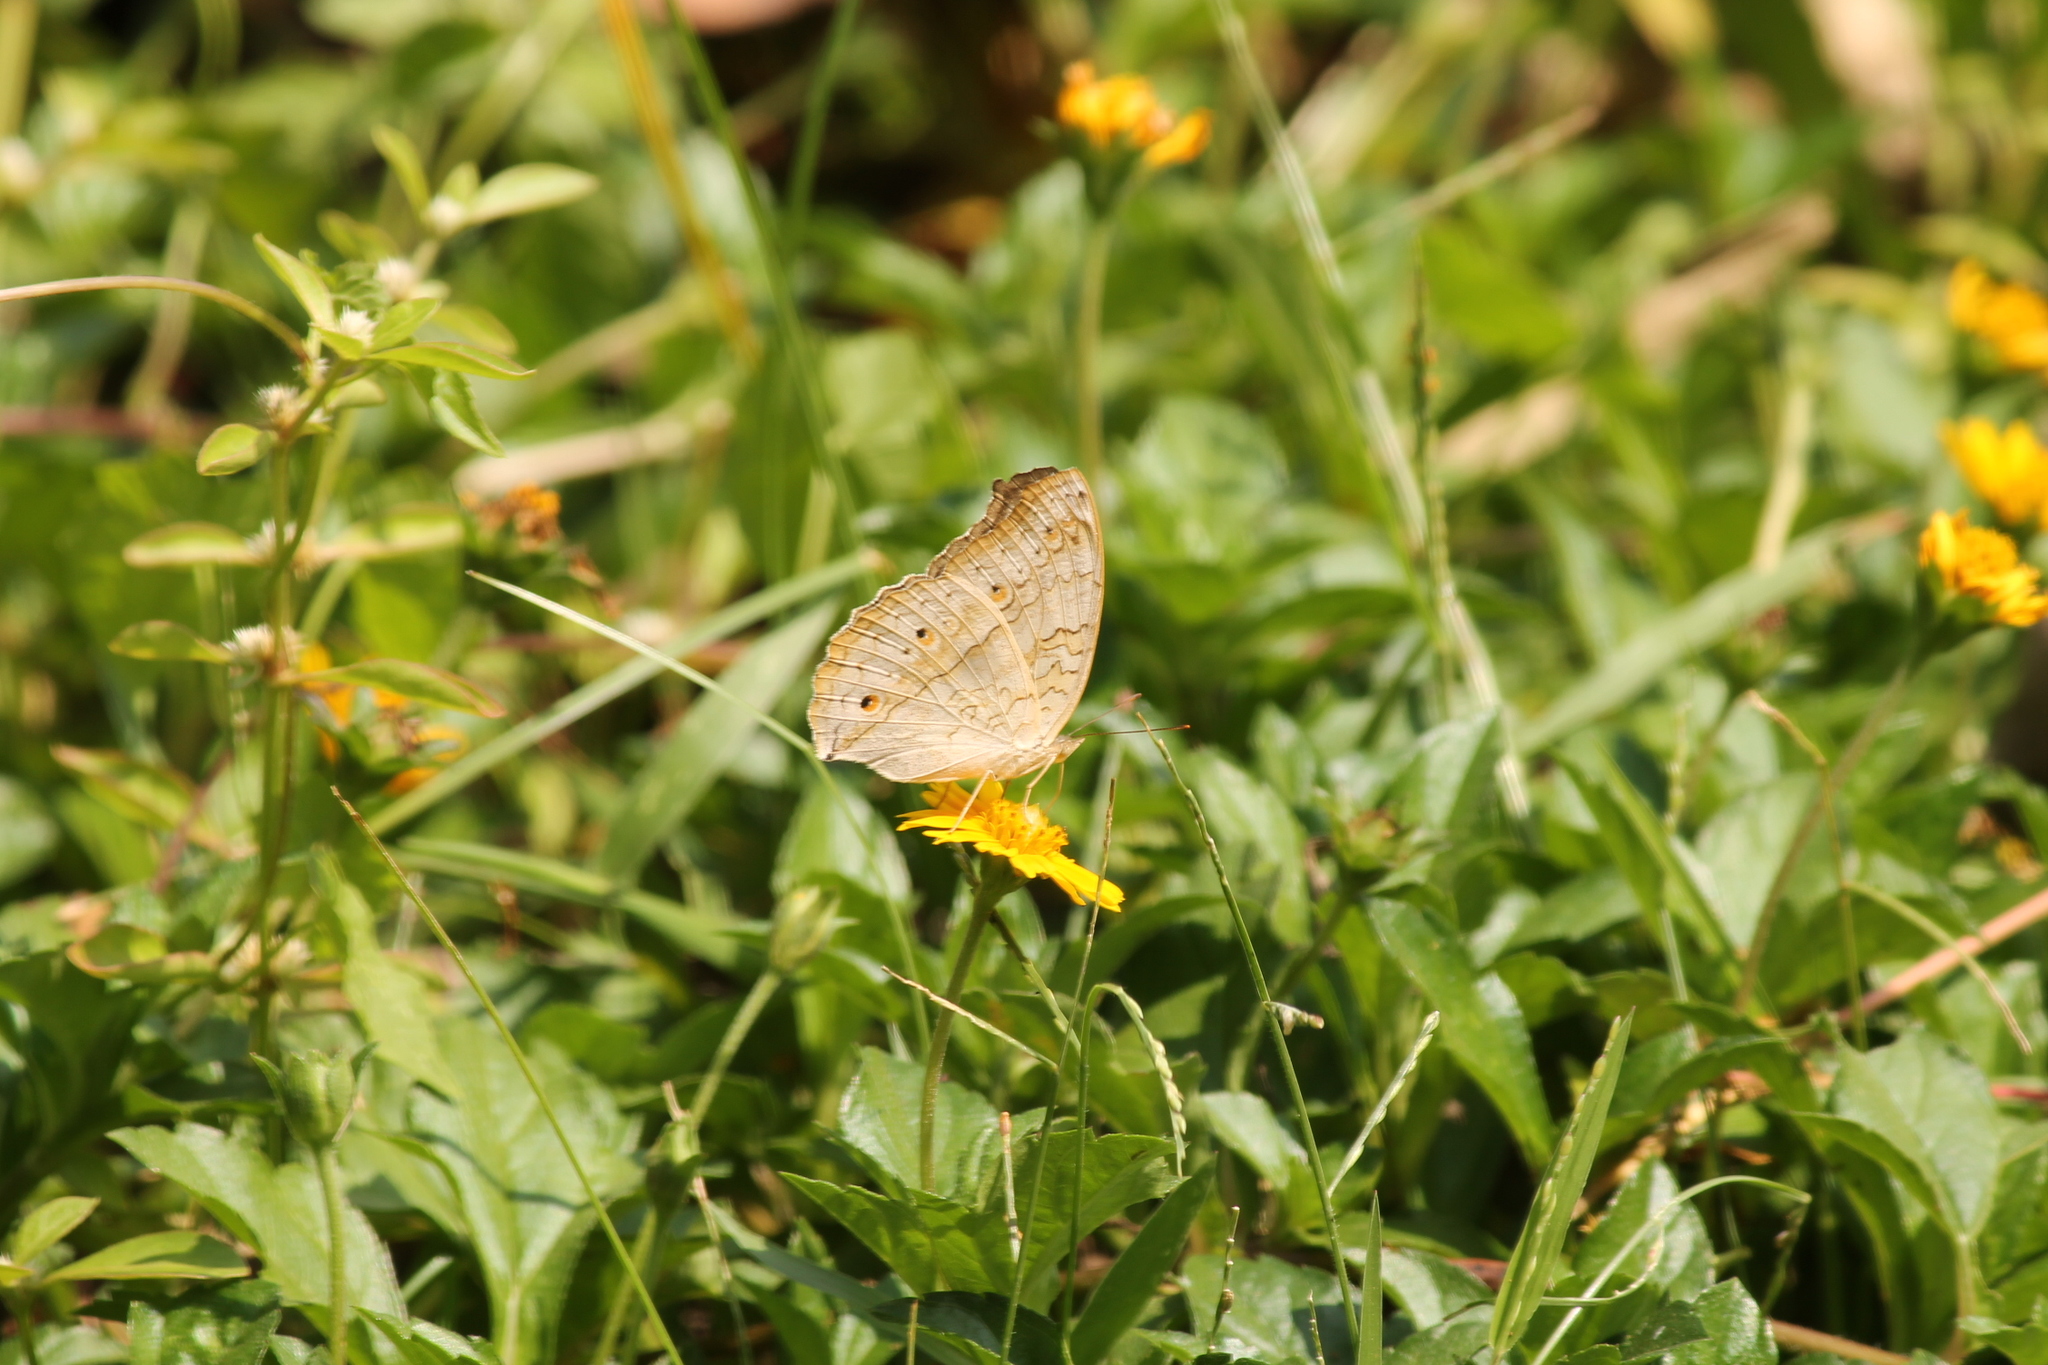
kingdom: Animalia
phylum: Arthropoda
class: Insecta
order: Lepidoptera
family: Nymphalidae
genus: Junonia
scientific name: Junonia atlites
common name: Grey pansy
